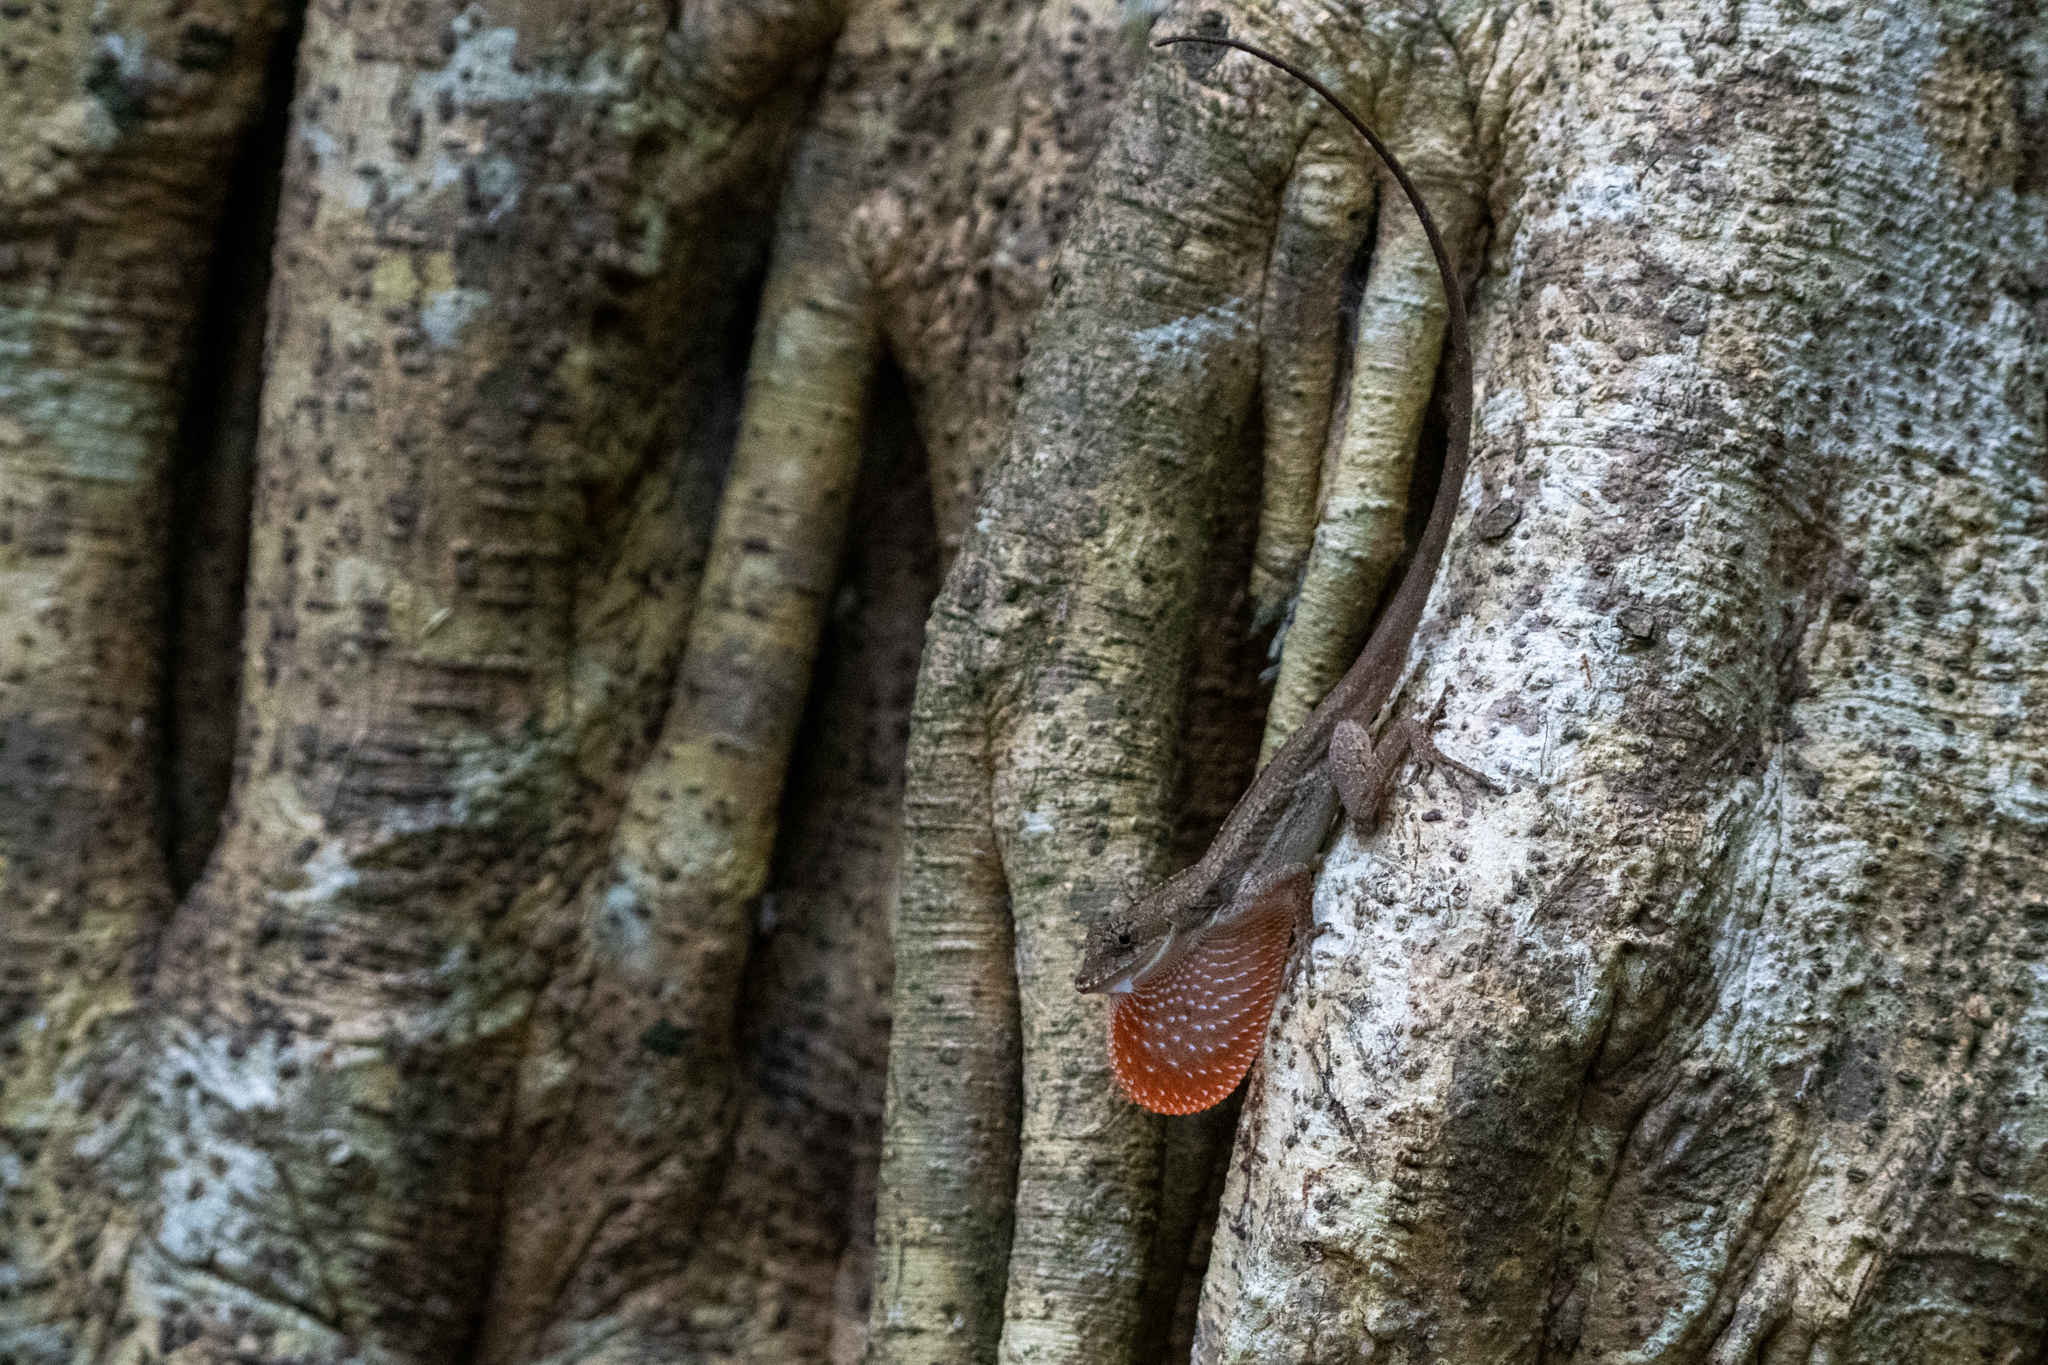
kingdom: Animalia
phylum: Chordata
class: Squamata
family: Dactyloidae
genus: Anolis
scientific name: Anolis bicaorum
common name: Bay islands anole
